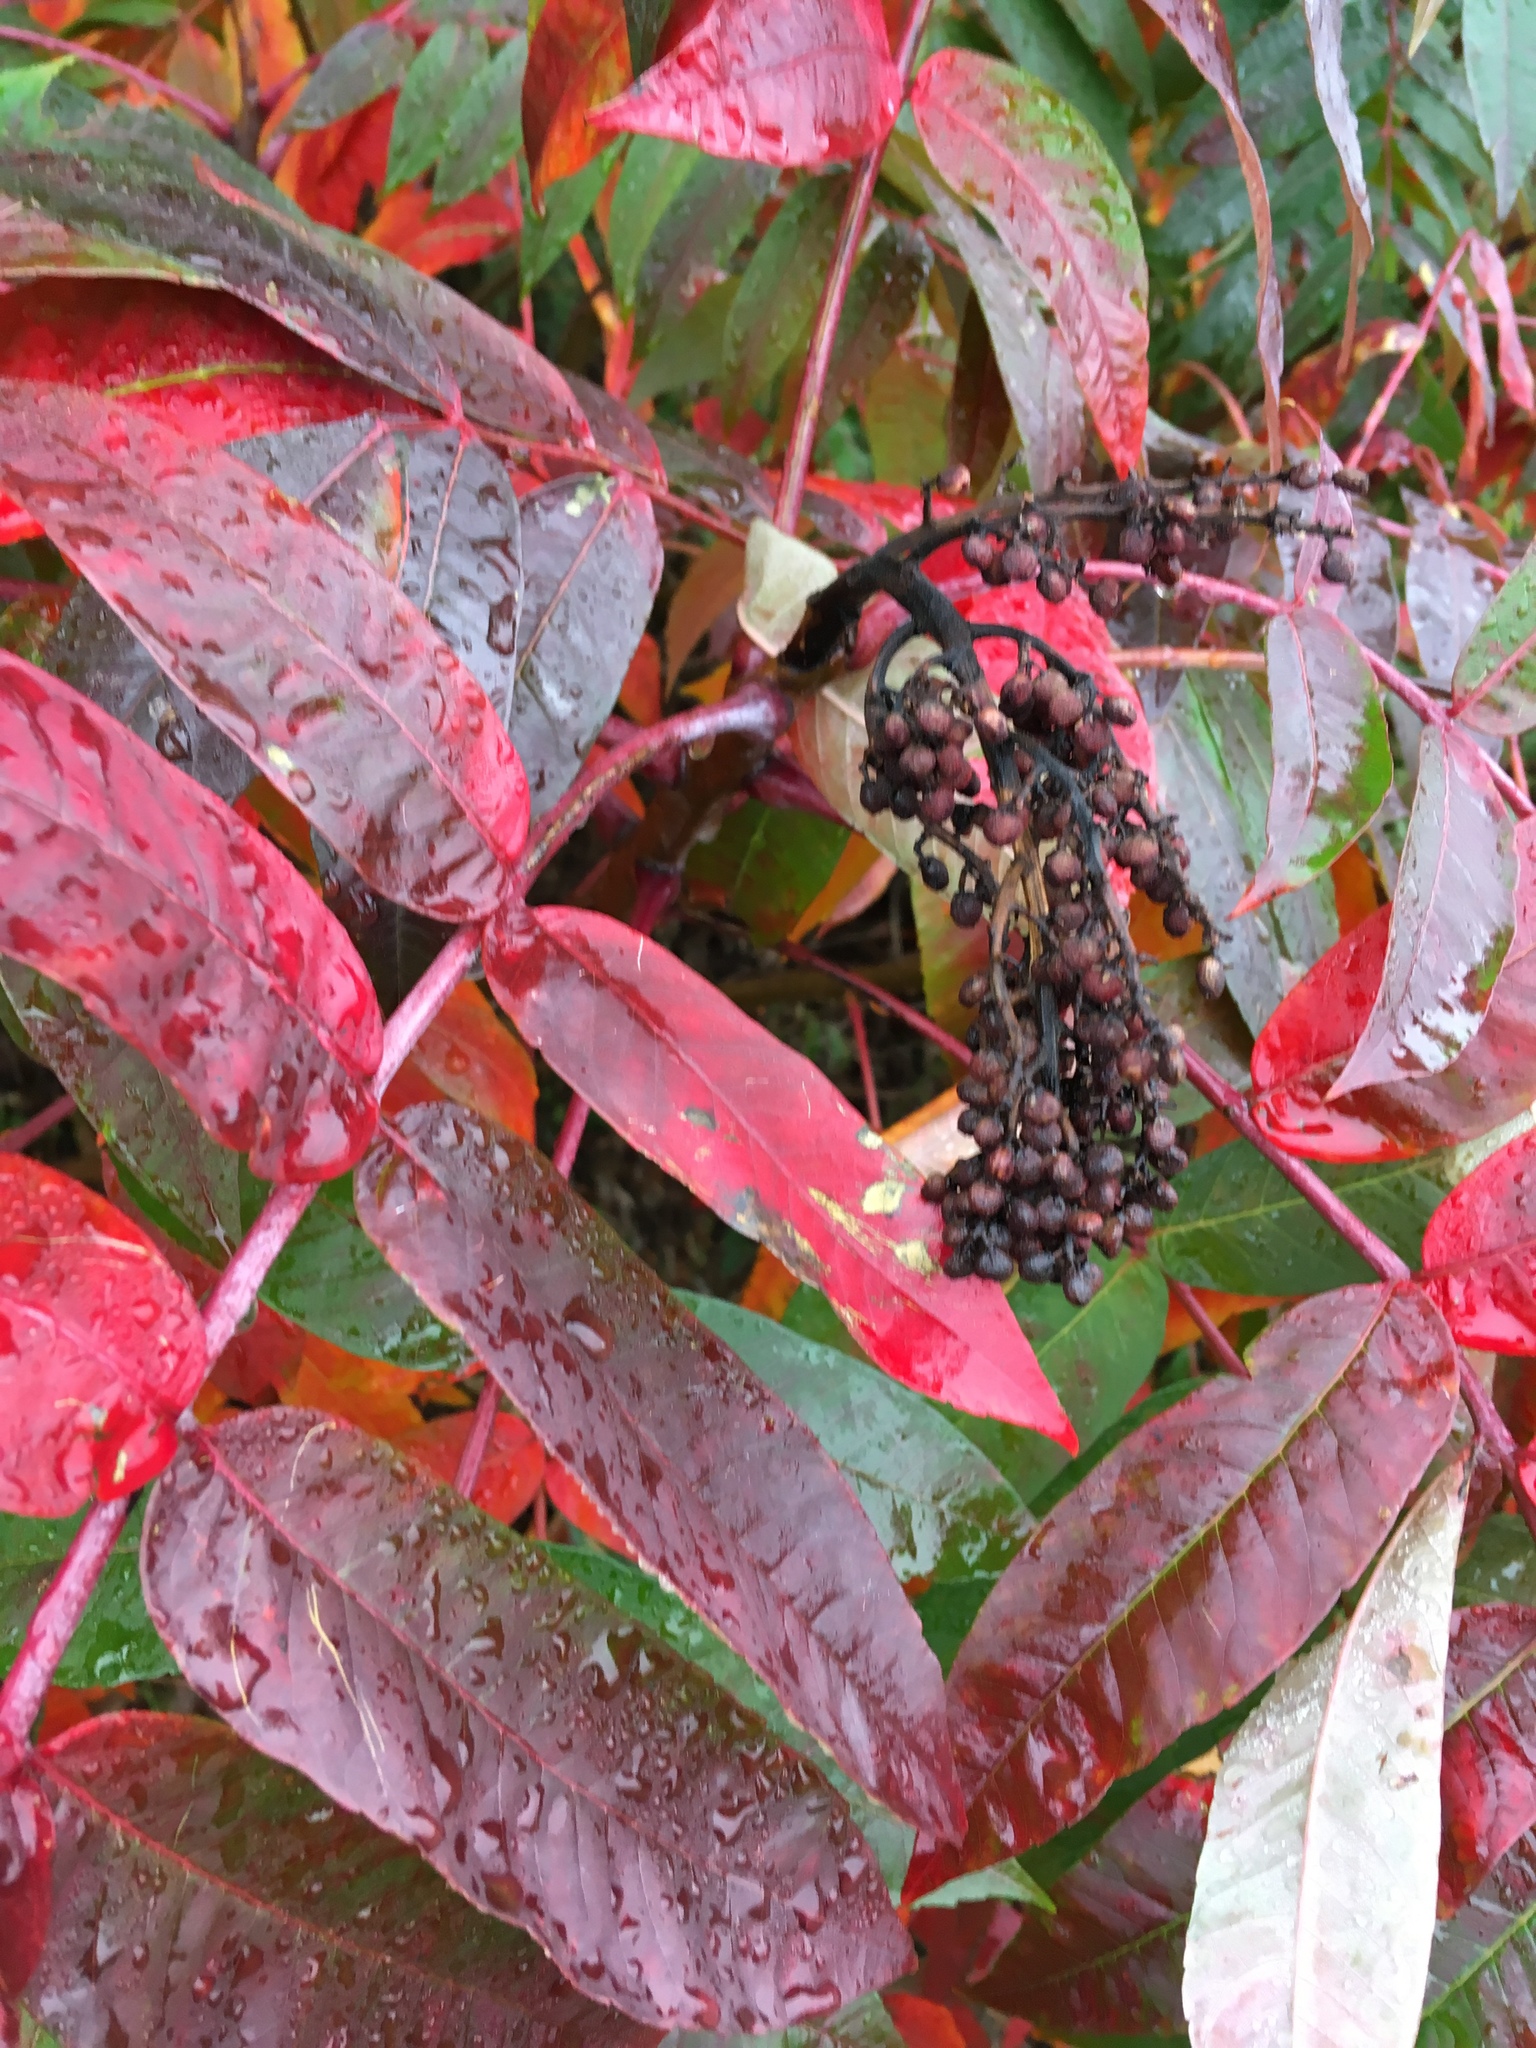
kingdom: Plantae
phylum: Tracheophyta
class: Magnoliopsida
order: Sapindales
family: Anacardiaceae
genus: Rhus
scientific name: Rhus glabra
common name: Scarlet sumac
